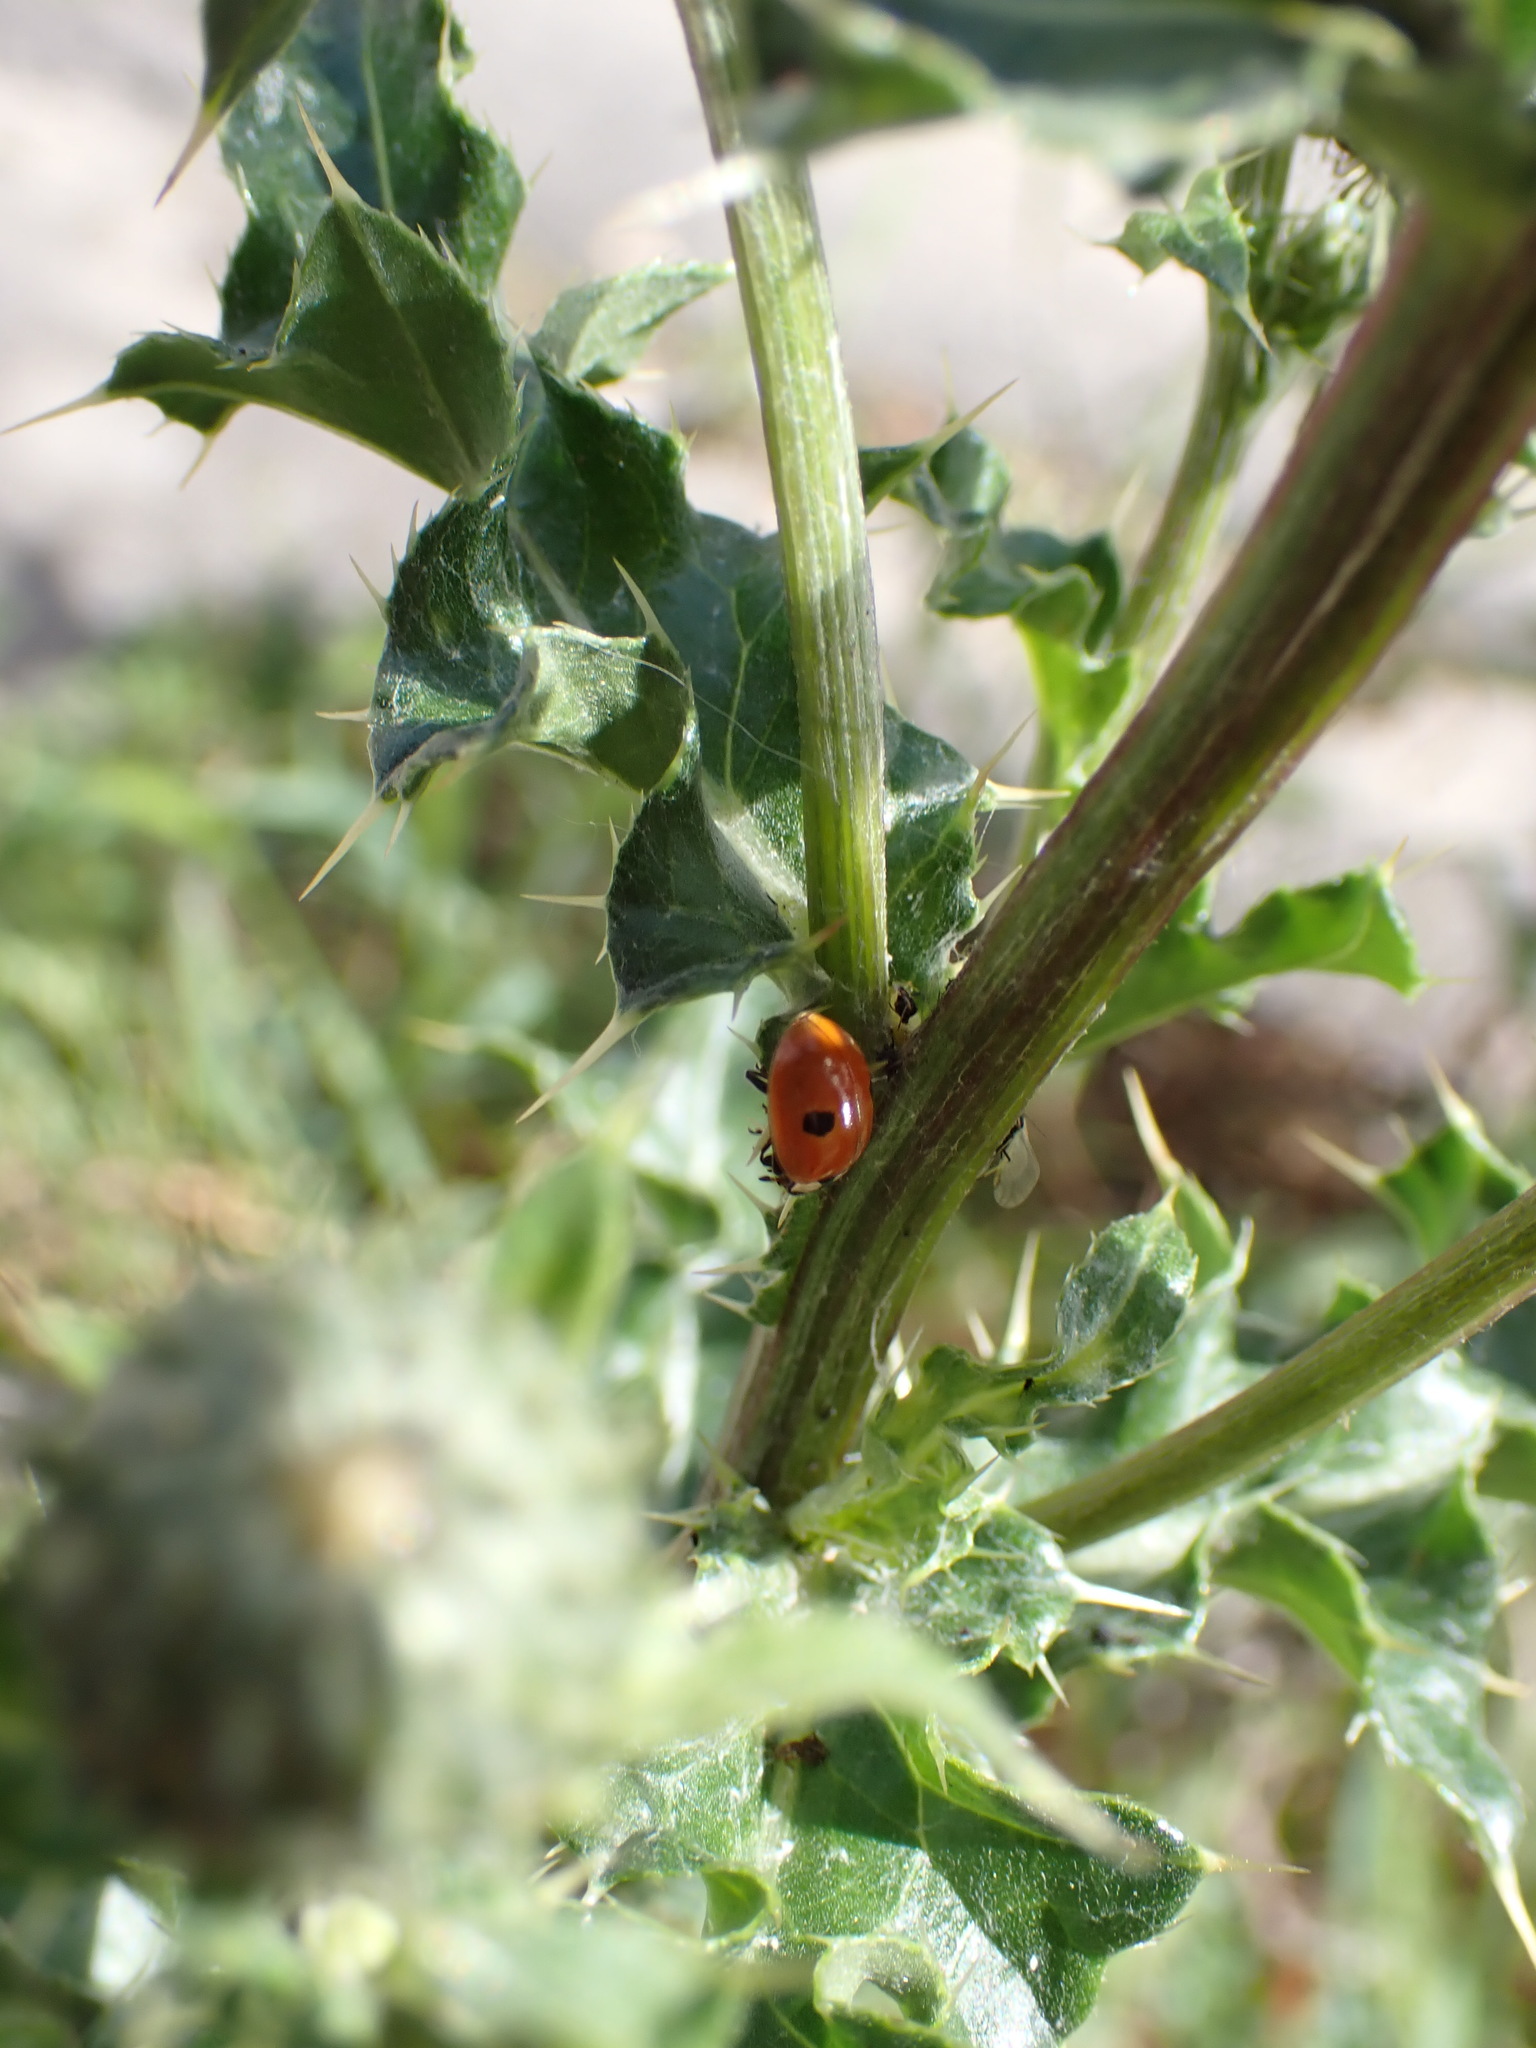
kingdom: Animalia
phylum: Arthropoda
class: Insecta
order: Coleoptera
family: Coccinellidae
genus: Adalia
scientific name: Adalia bipunctata
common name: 2-spot ladybird
